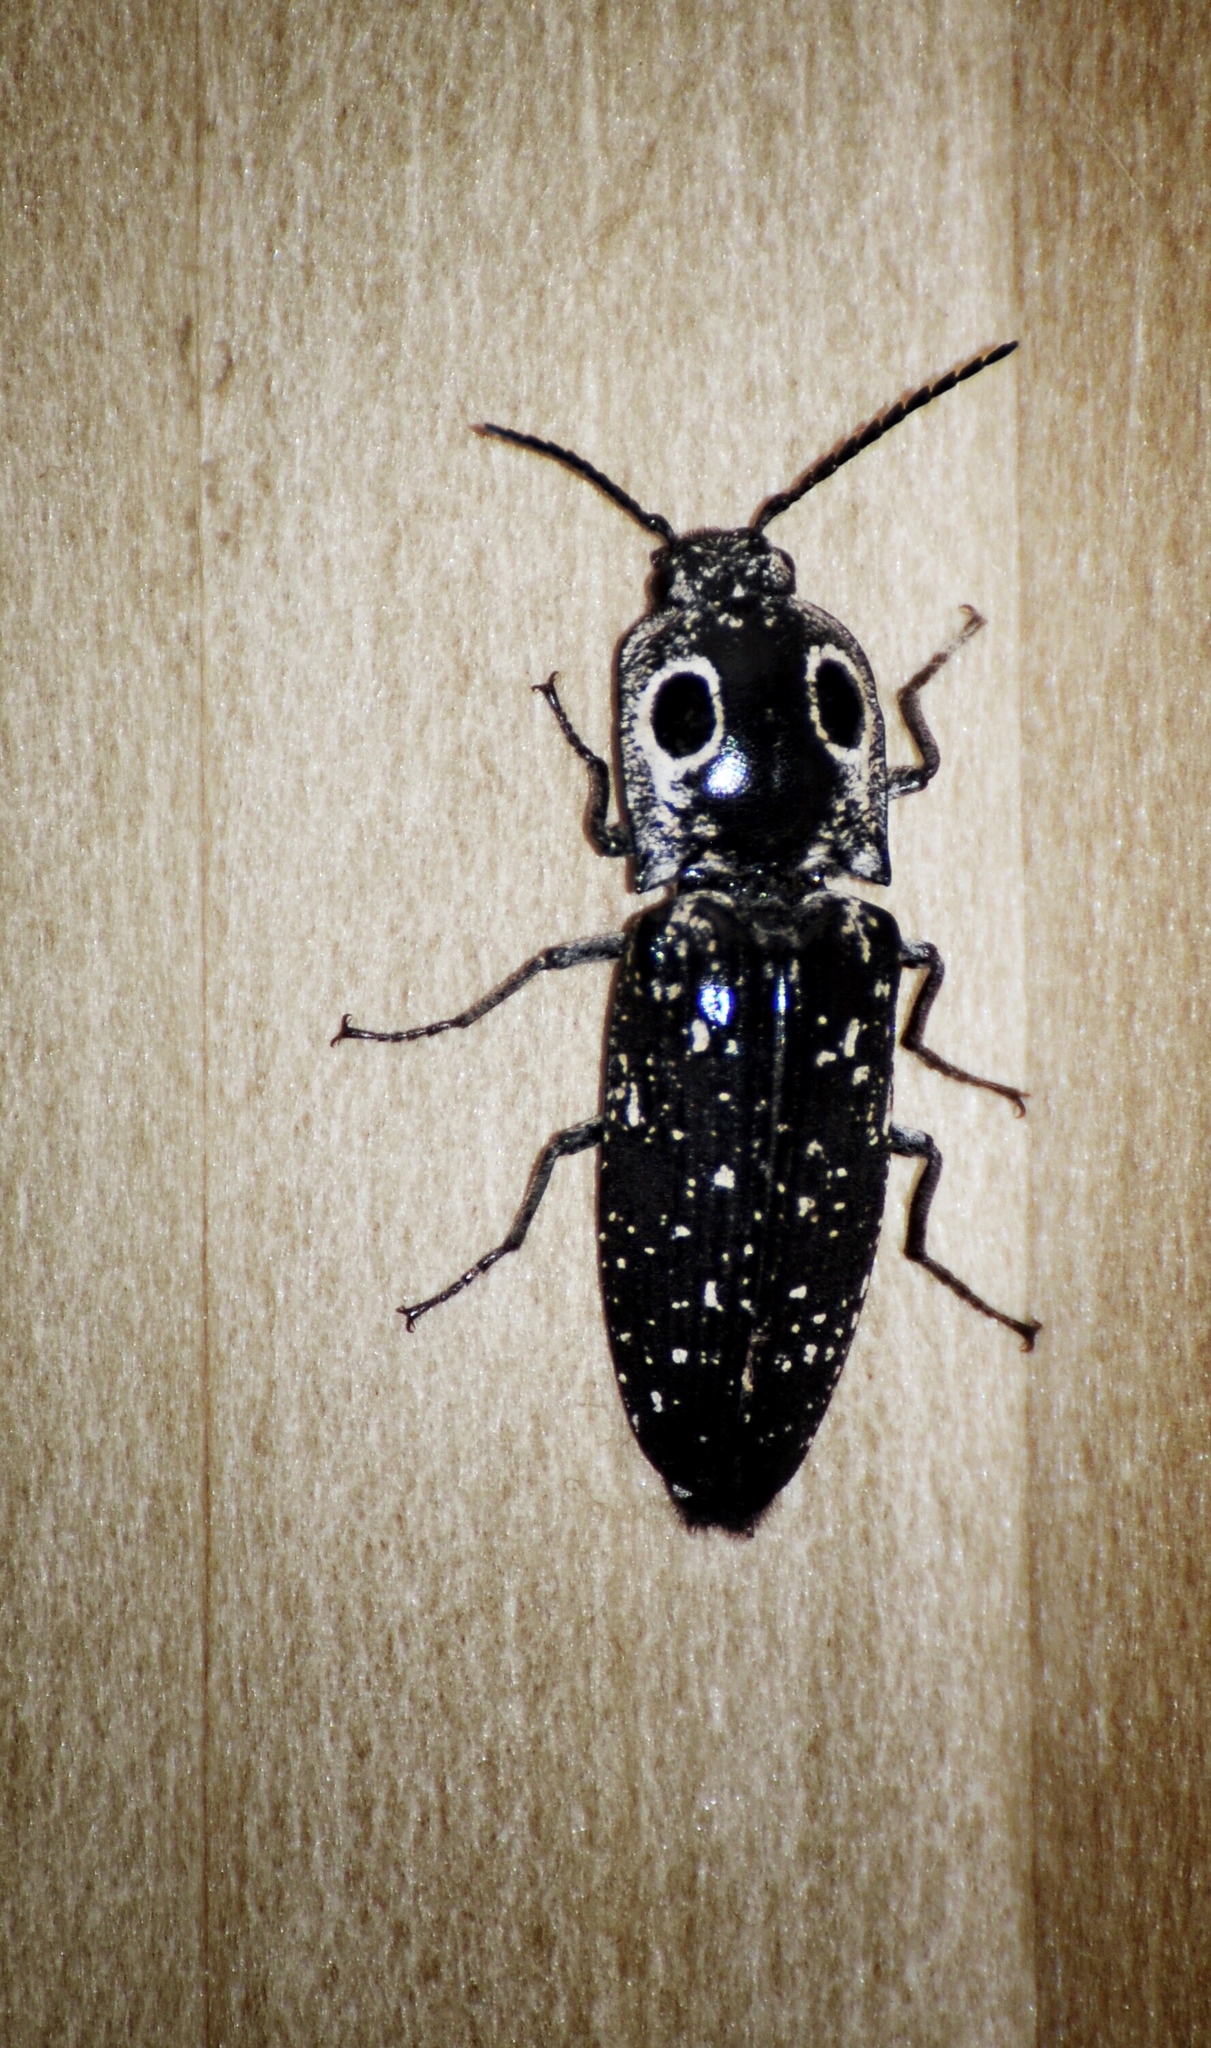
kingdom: Animalia
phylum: Arthropoda
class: Insecta
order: Coleoptera
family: Elateridae
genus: Alaus
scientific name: Alaus oculatus
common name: Eastern eyed click beetle
